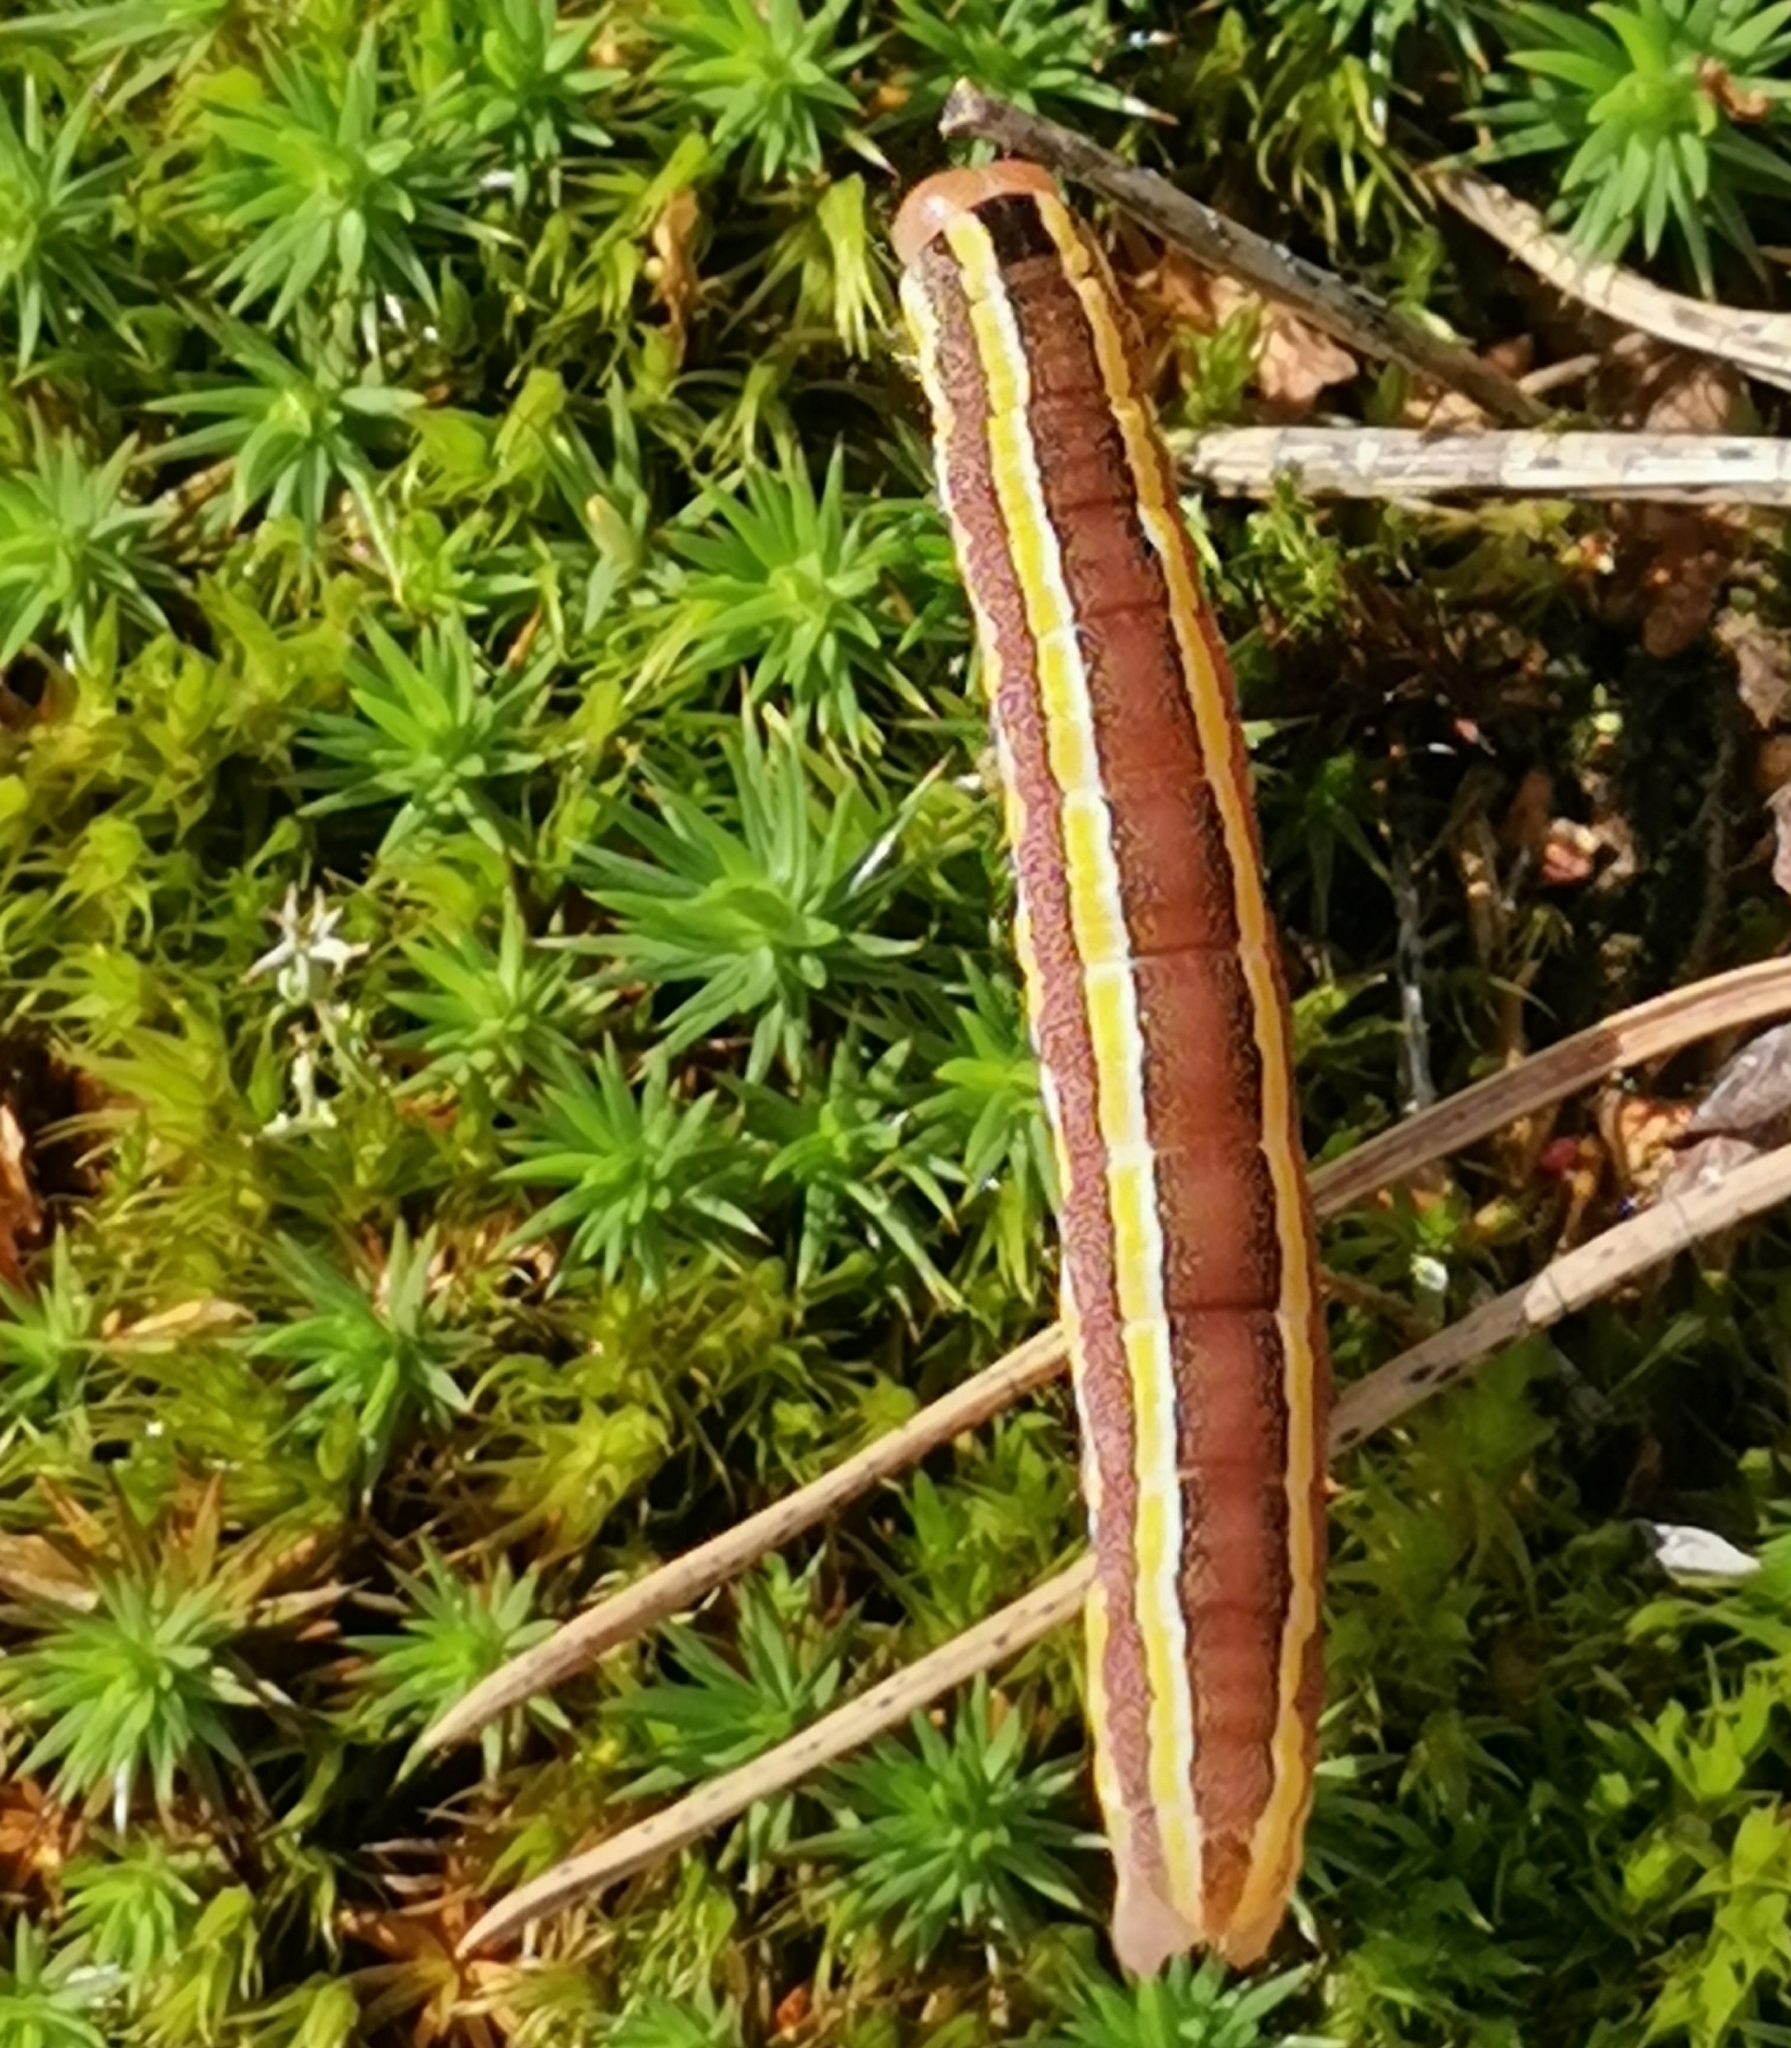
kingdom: Animalia
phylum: Arthropoda
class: Insecta
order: Lepidoptera
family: Noctuidae
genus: Ceramica
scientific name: Ceramica pisi
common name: Broom moth
